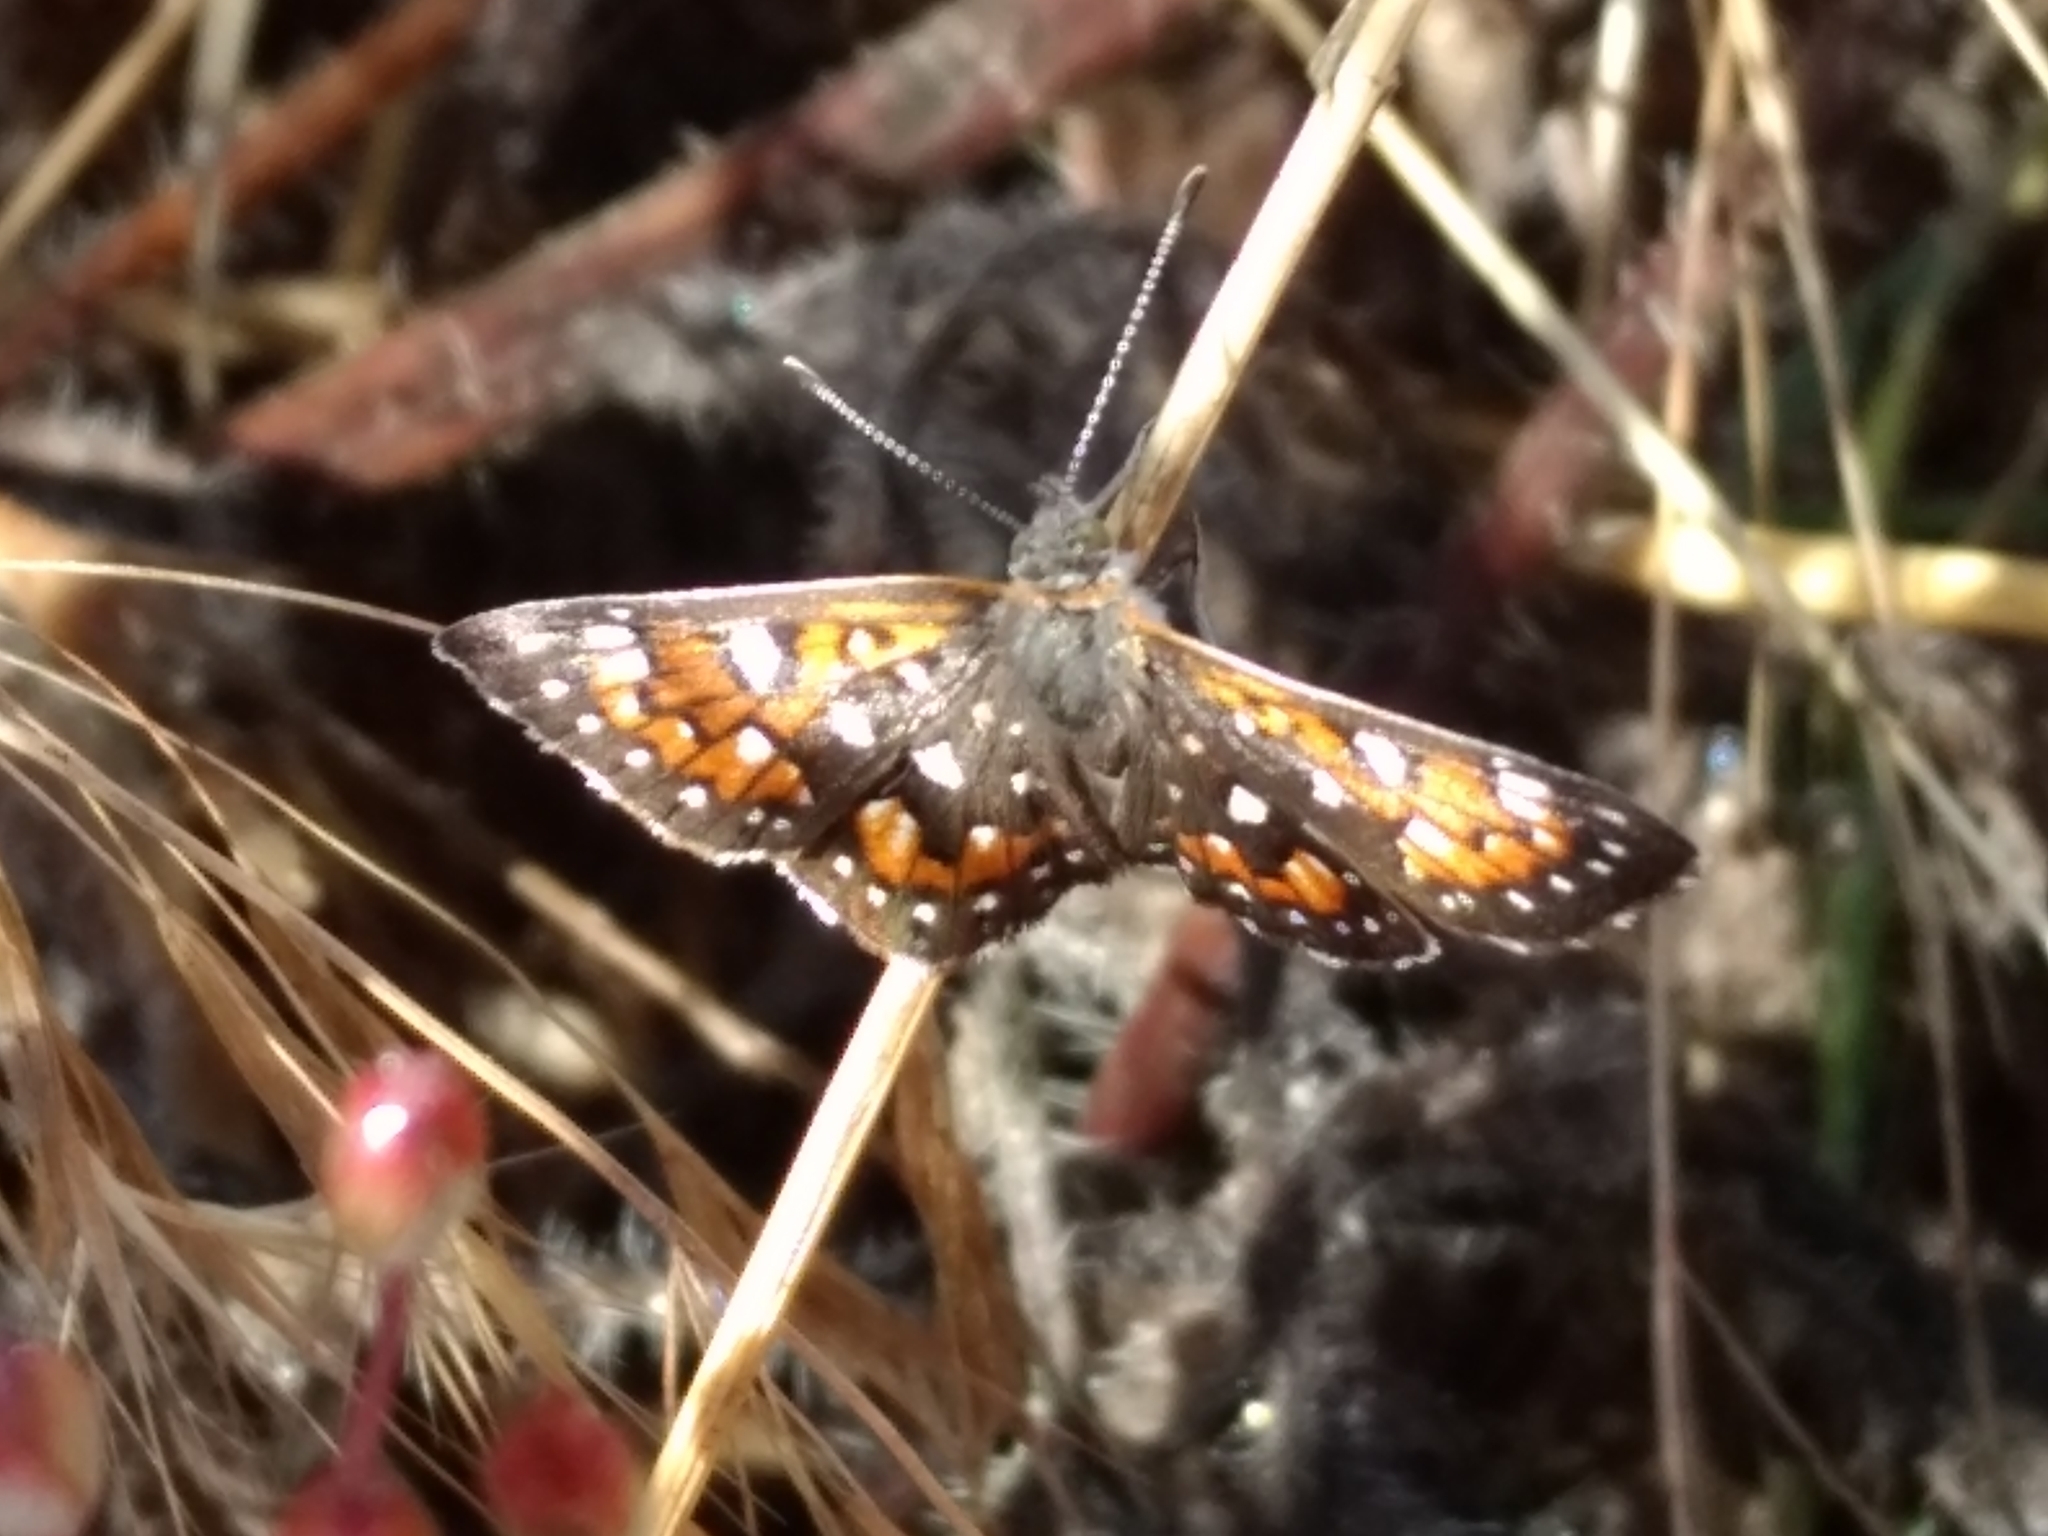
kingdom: Animalia
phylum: Arthropoda
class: Insecta
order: Lepidoptera
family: Riodinidae
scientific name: Riodinidae
